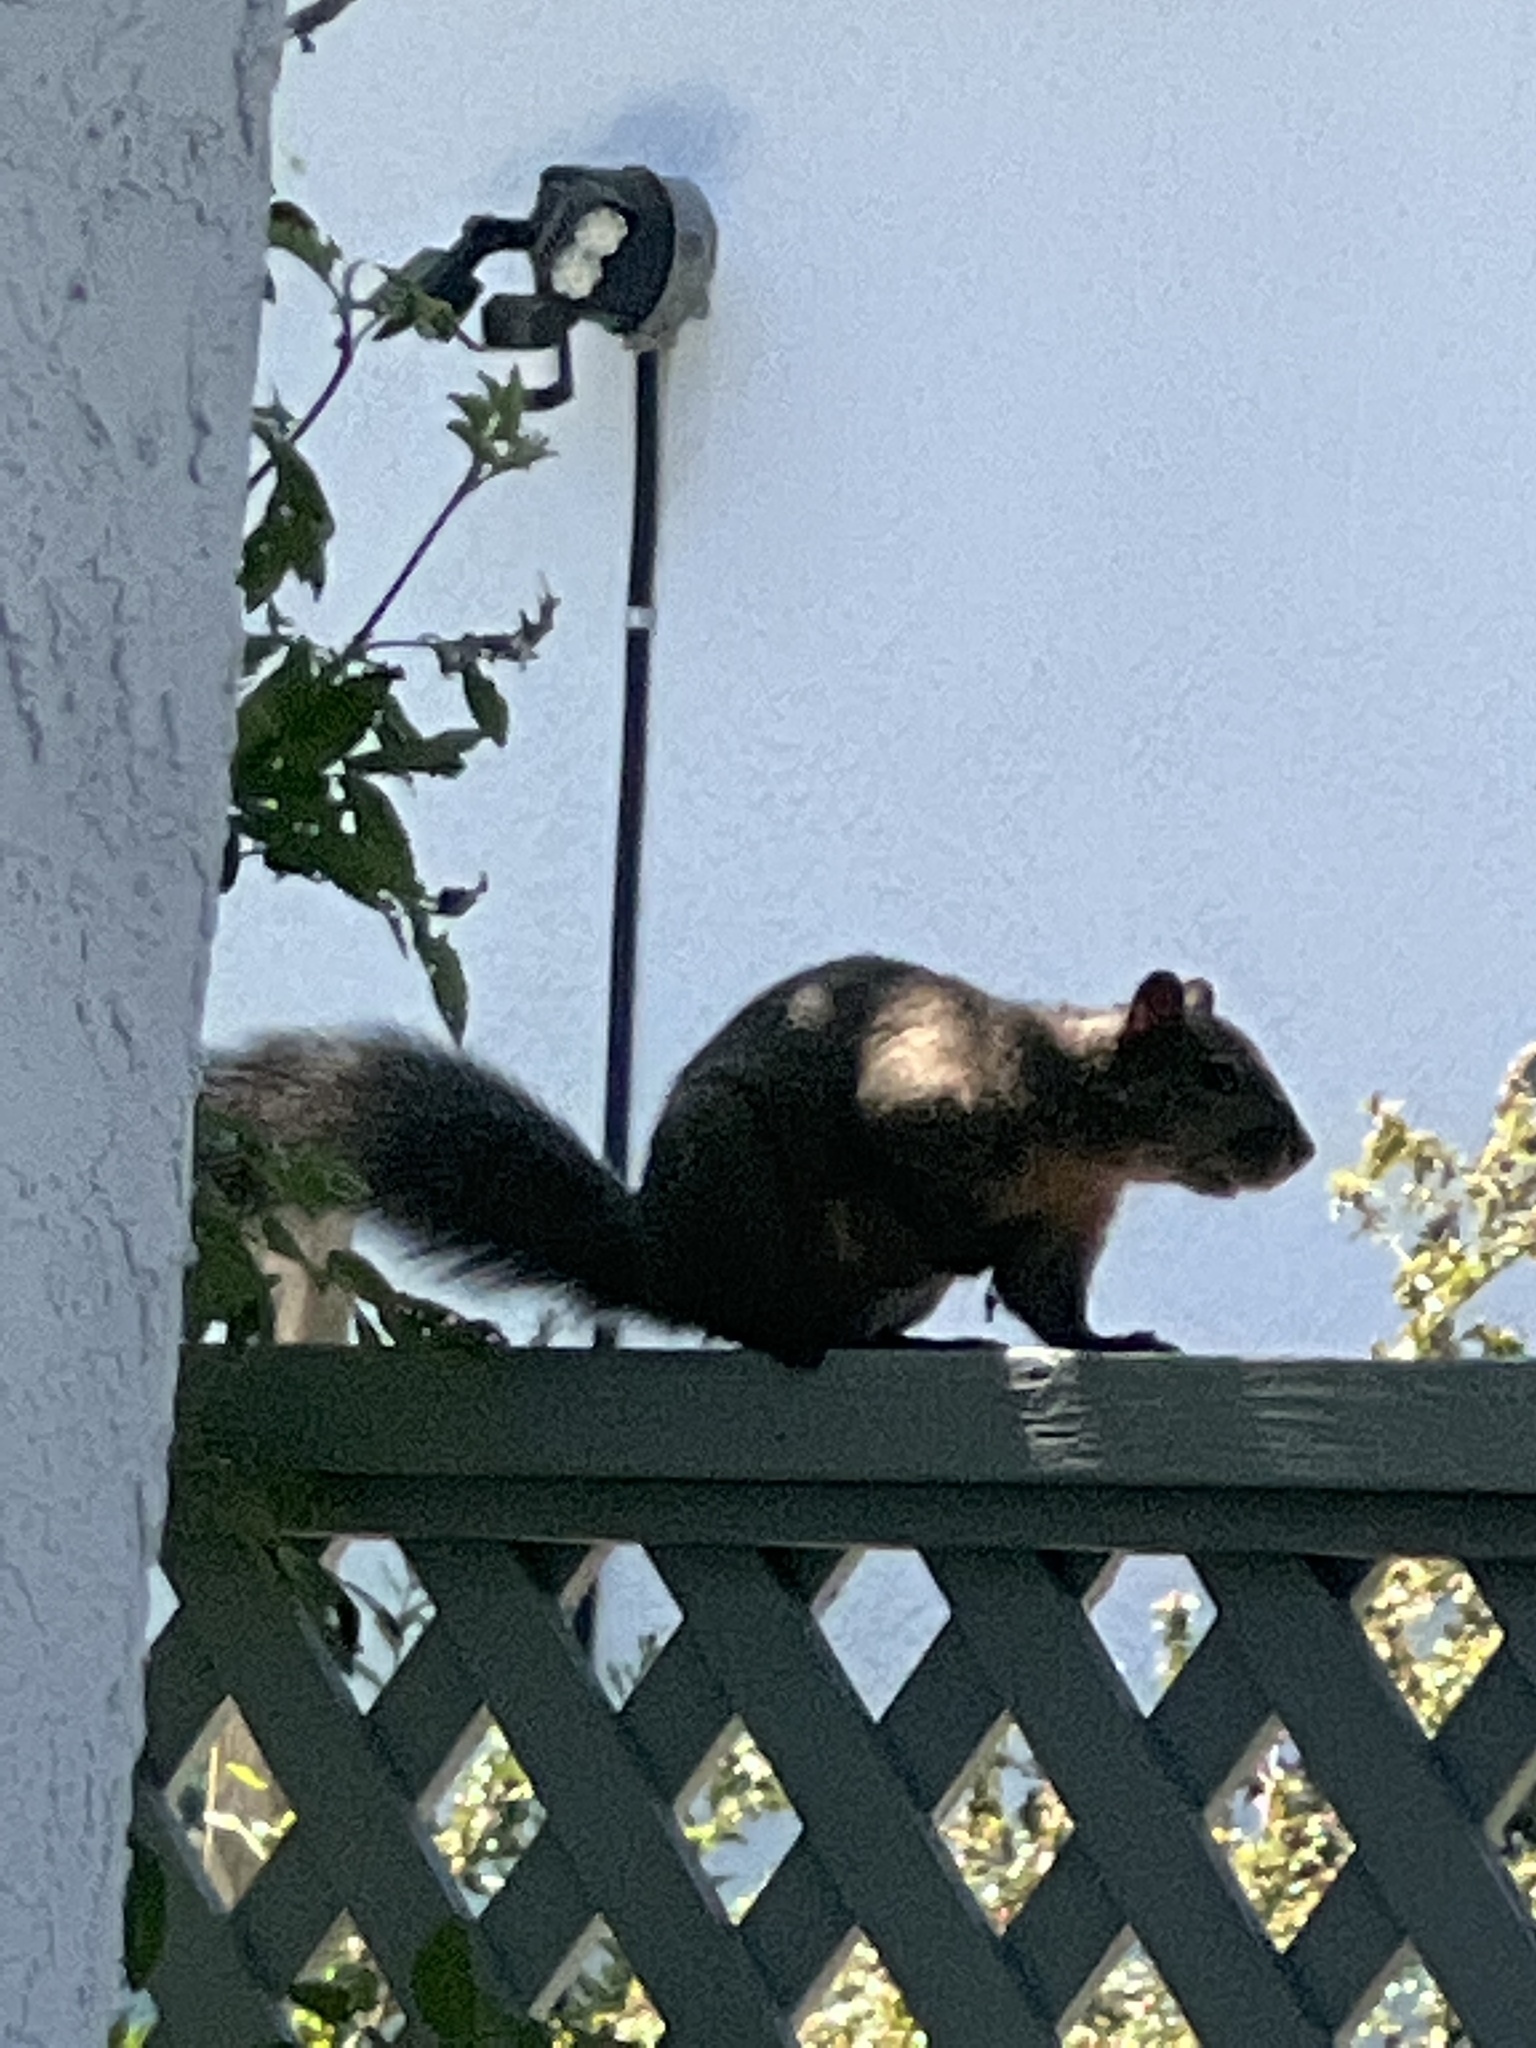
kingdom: Animalia
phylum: Chordata
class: Mammalia
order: Rodentia
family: Sciuridae
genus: Sciurus
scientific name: Sciurus carolinensis
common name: Eastern gray squirrel
